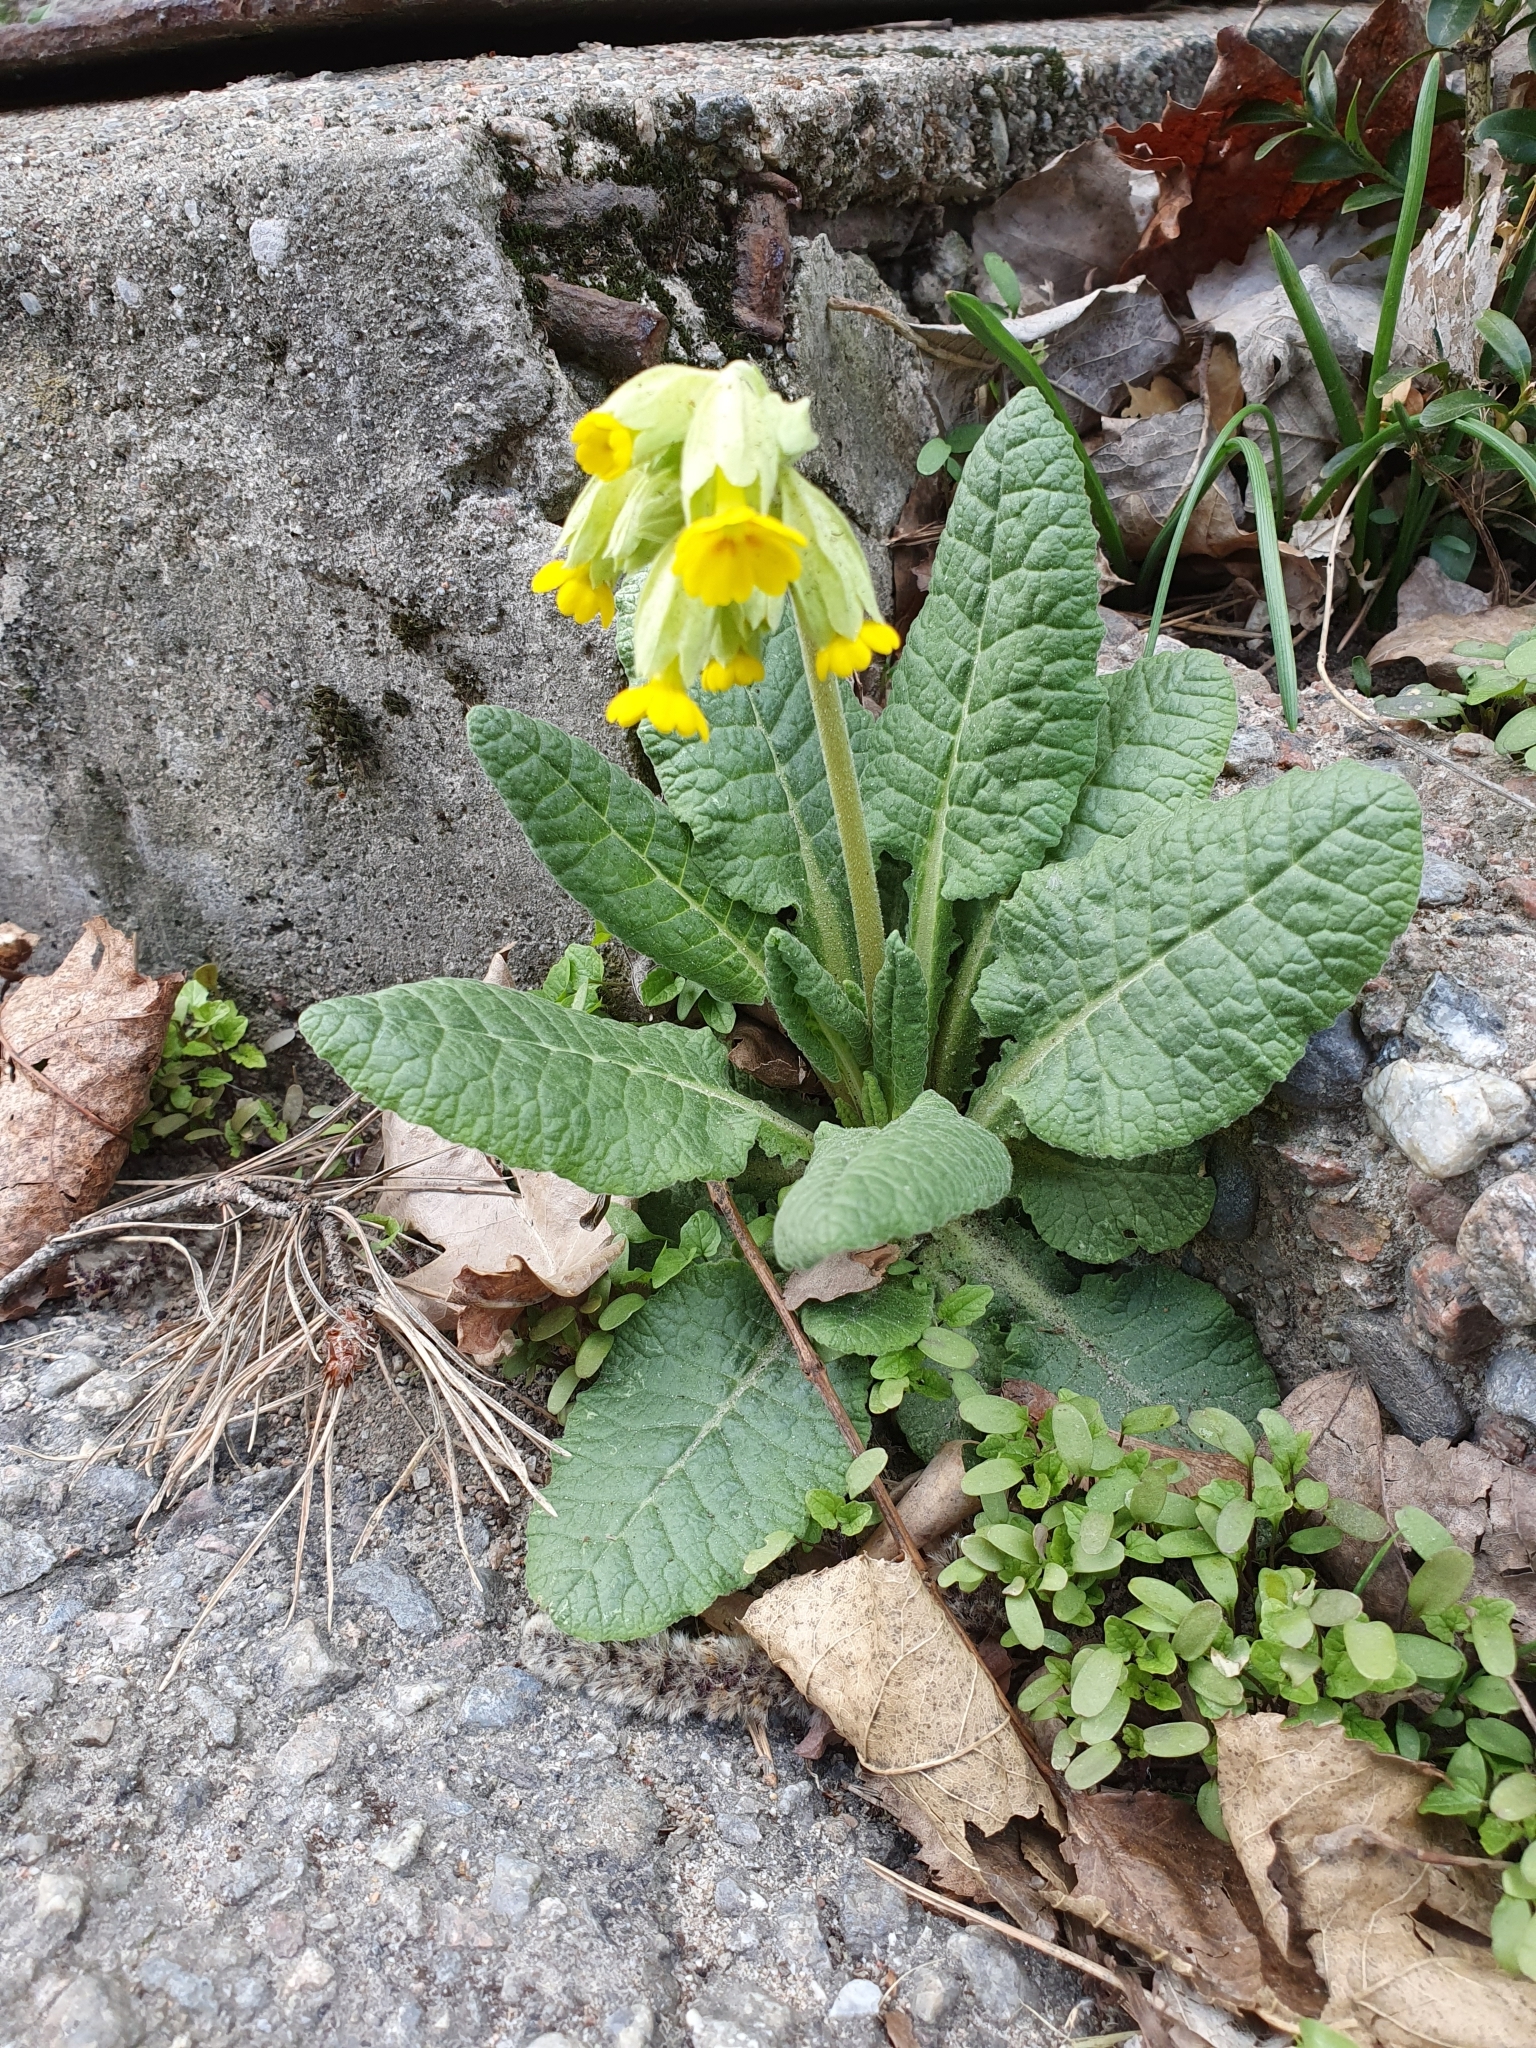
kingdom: Plantae
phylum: Tracheophyta
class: Magnoliopsida
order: Ericales
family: Primulaceae
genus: Primula
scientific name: Primula veris
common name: Cowslip
